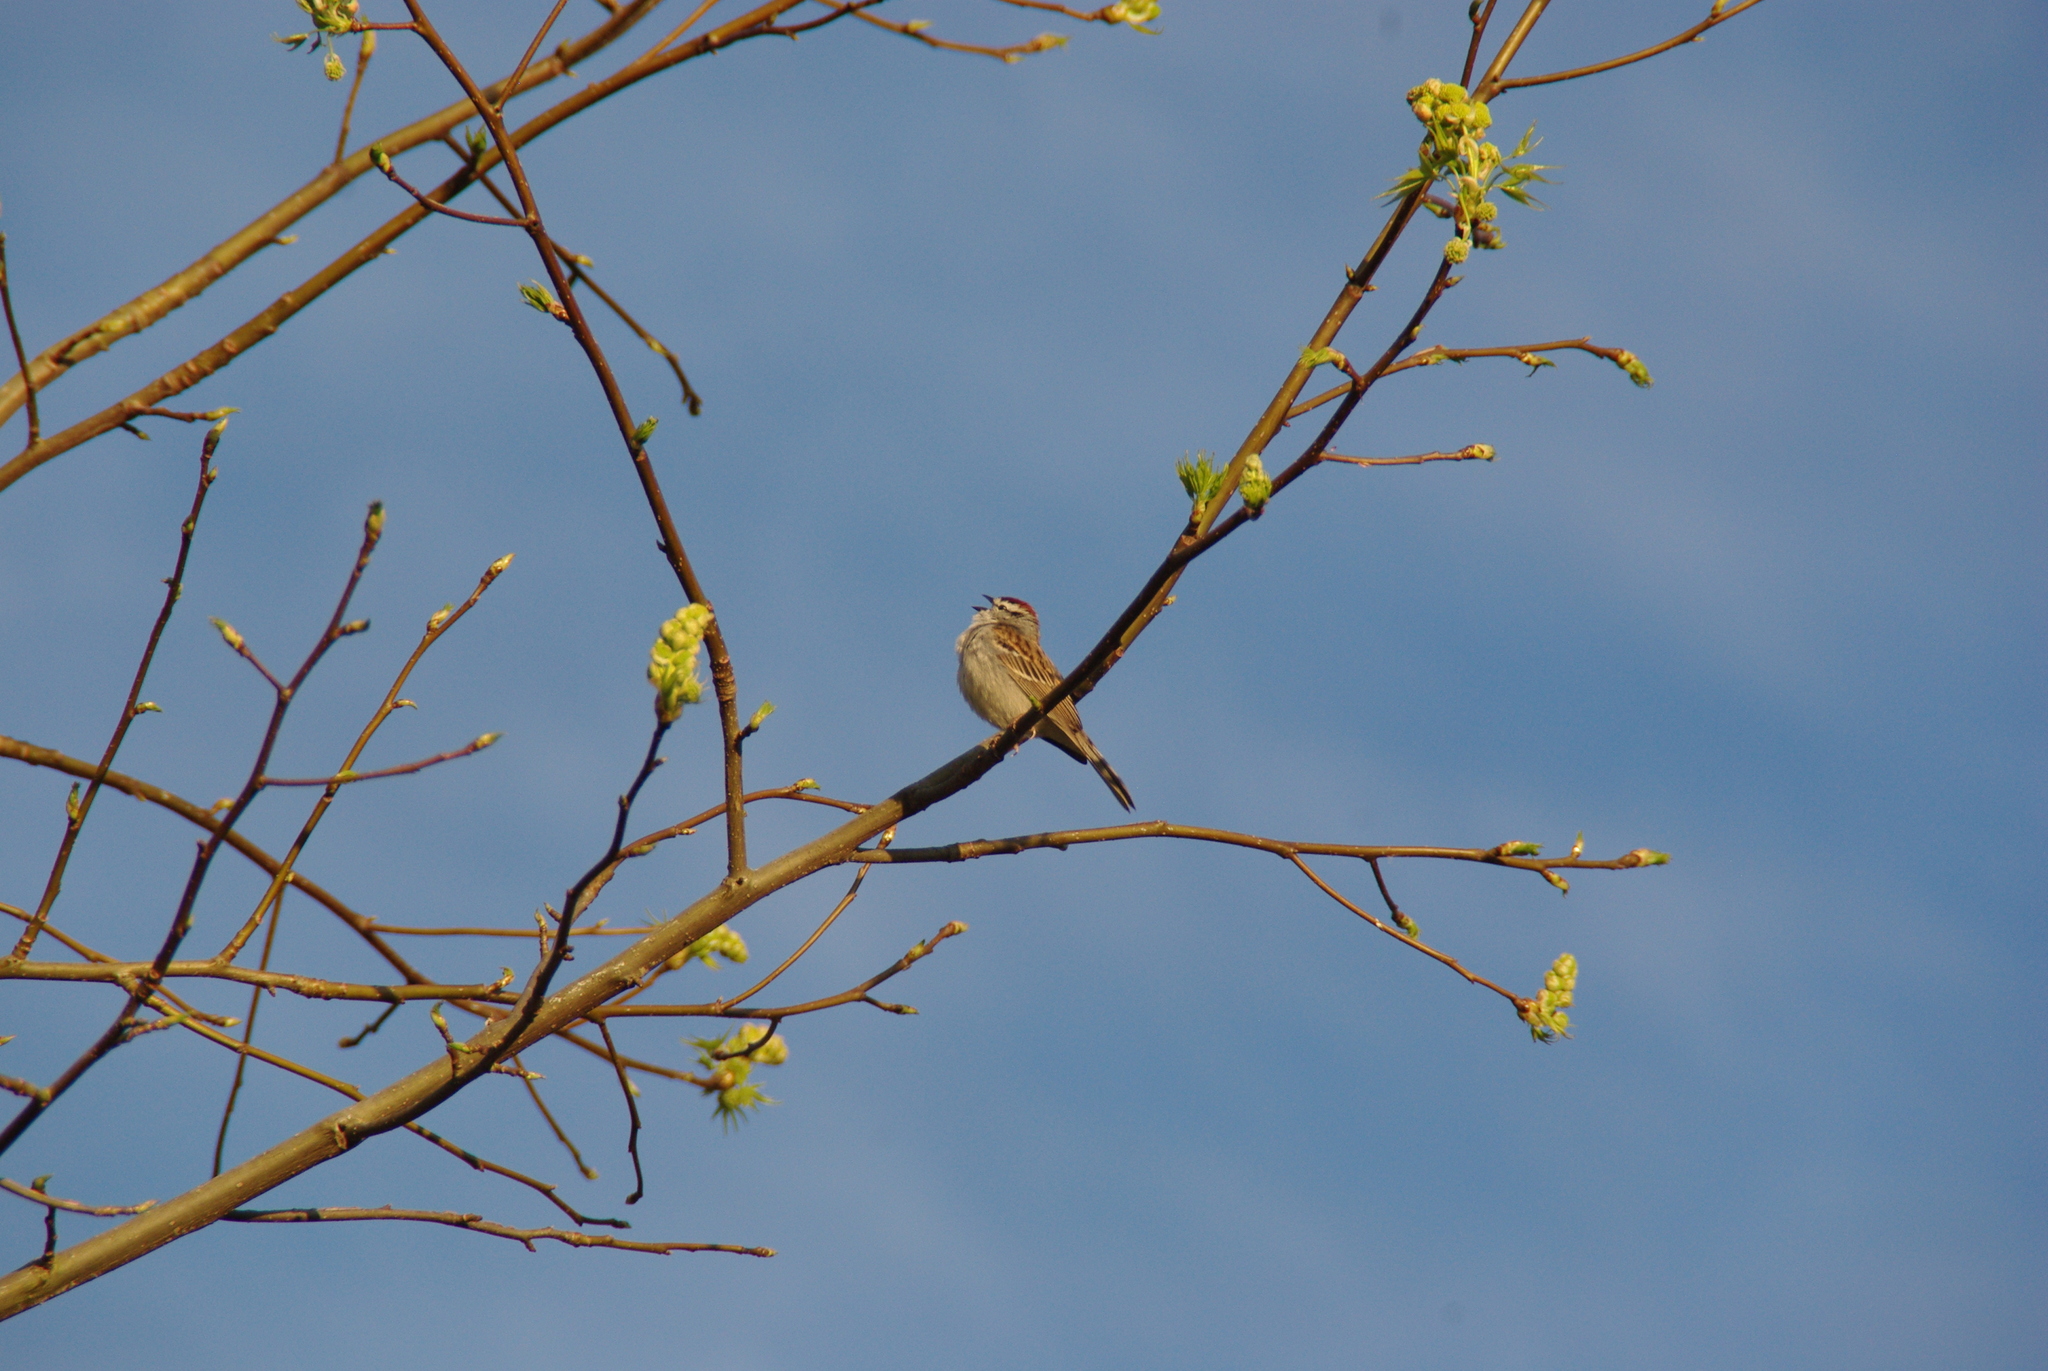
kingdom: Animalia
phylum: Chordata
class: Aves
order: Passeriformes
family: Passerellidae
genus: Spizella
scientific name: Spizella passerina
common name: Chipping sparrow
